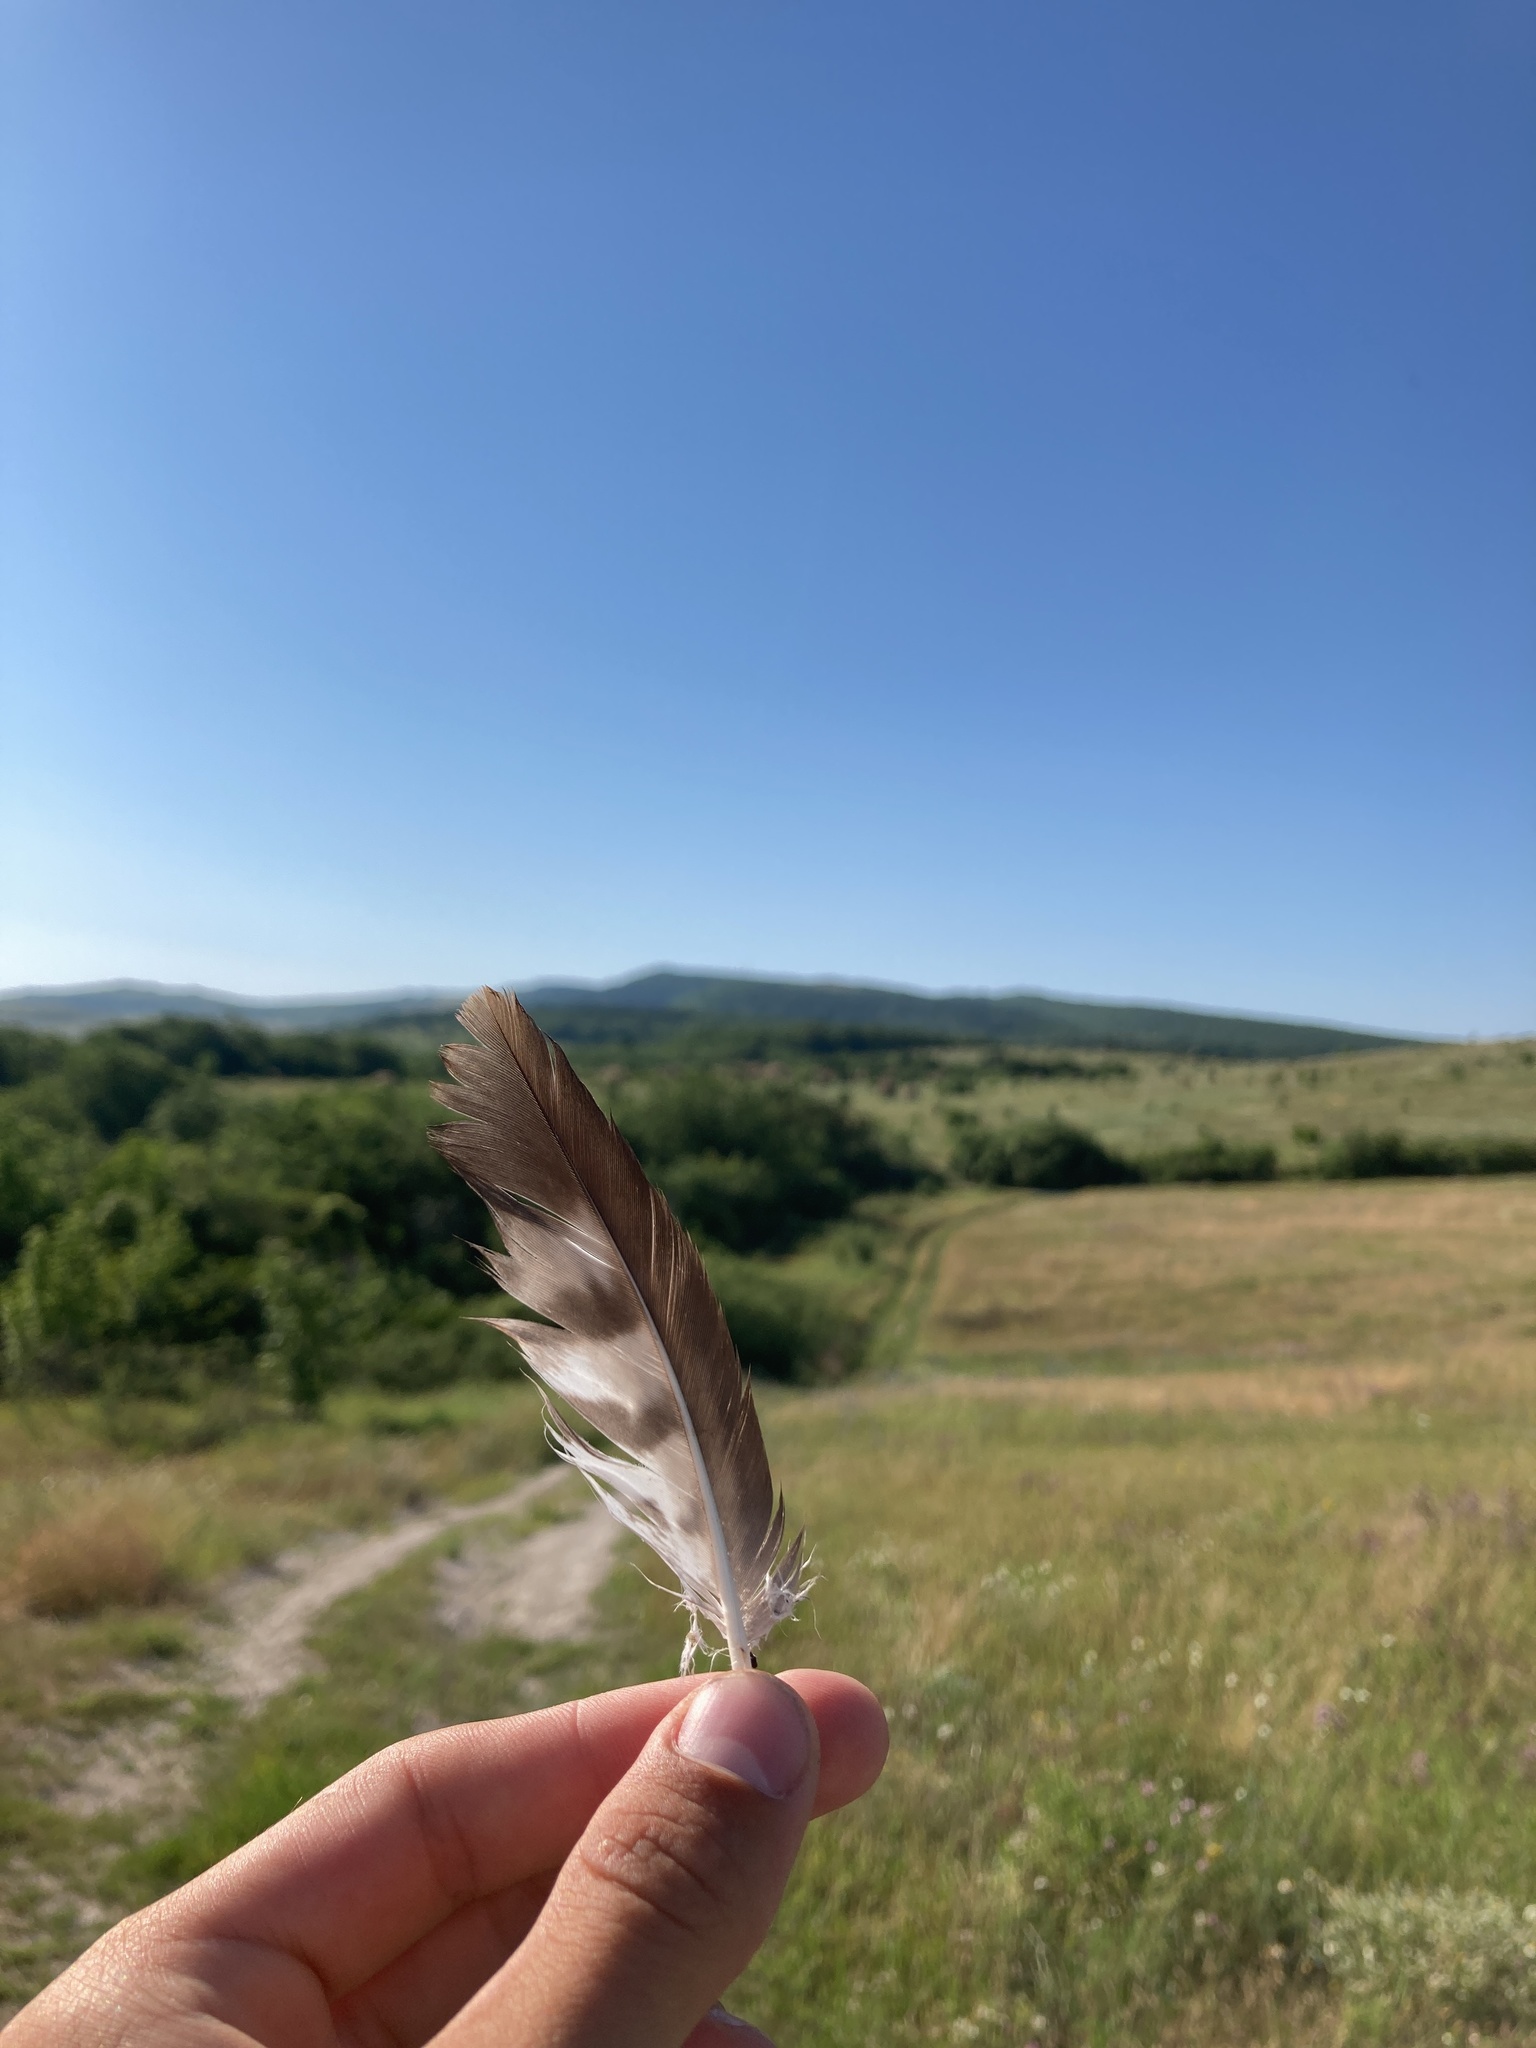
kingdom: Animalia
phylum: Chordata
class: Aves
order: Accipitriformes
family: Accipitridae
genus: Buteo
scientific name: Buteo buteo
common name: Common buzzard
